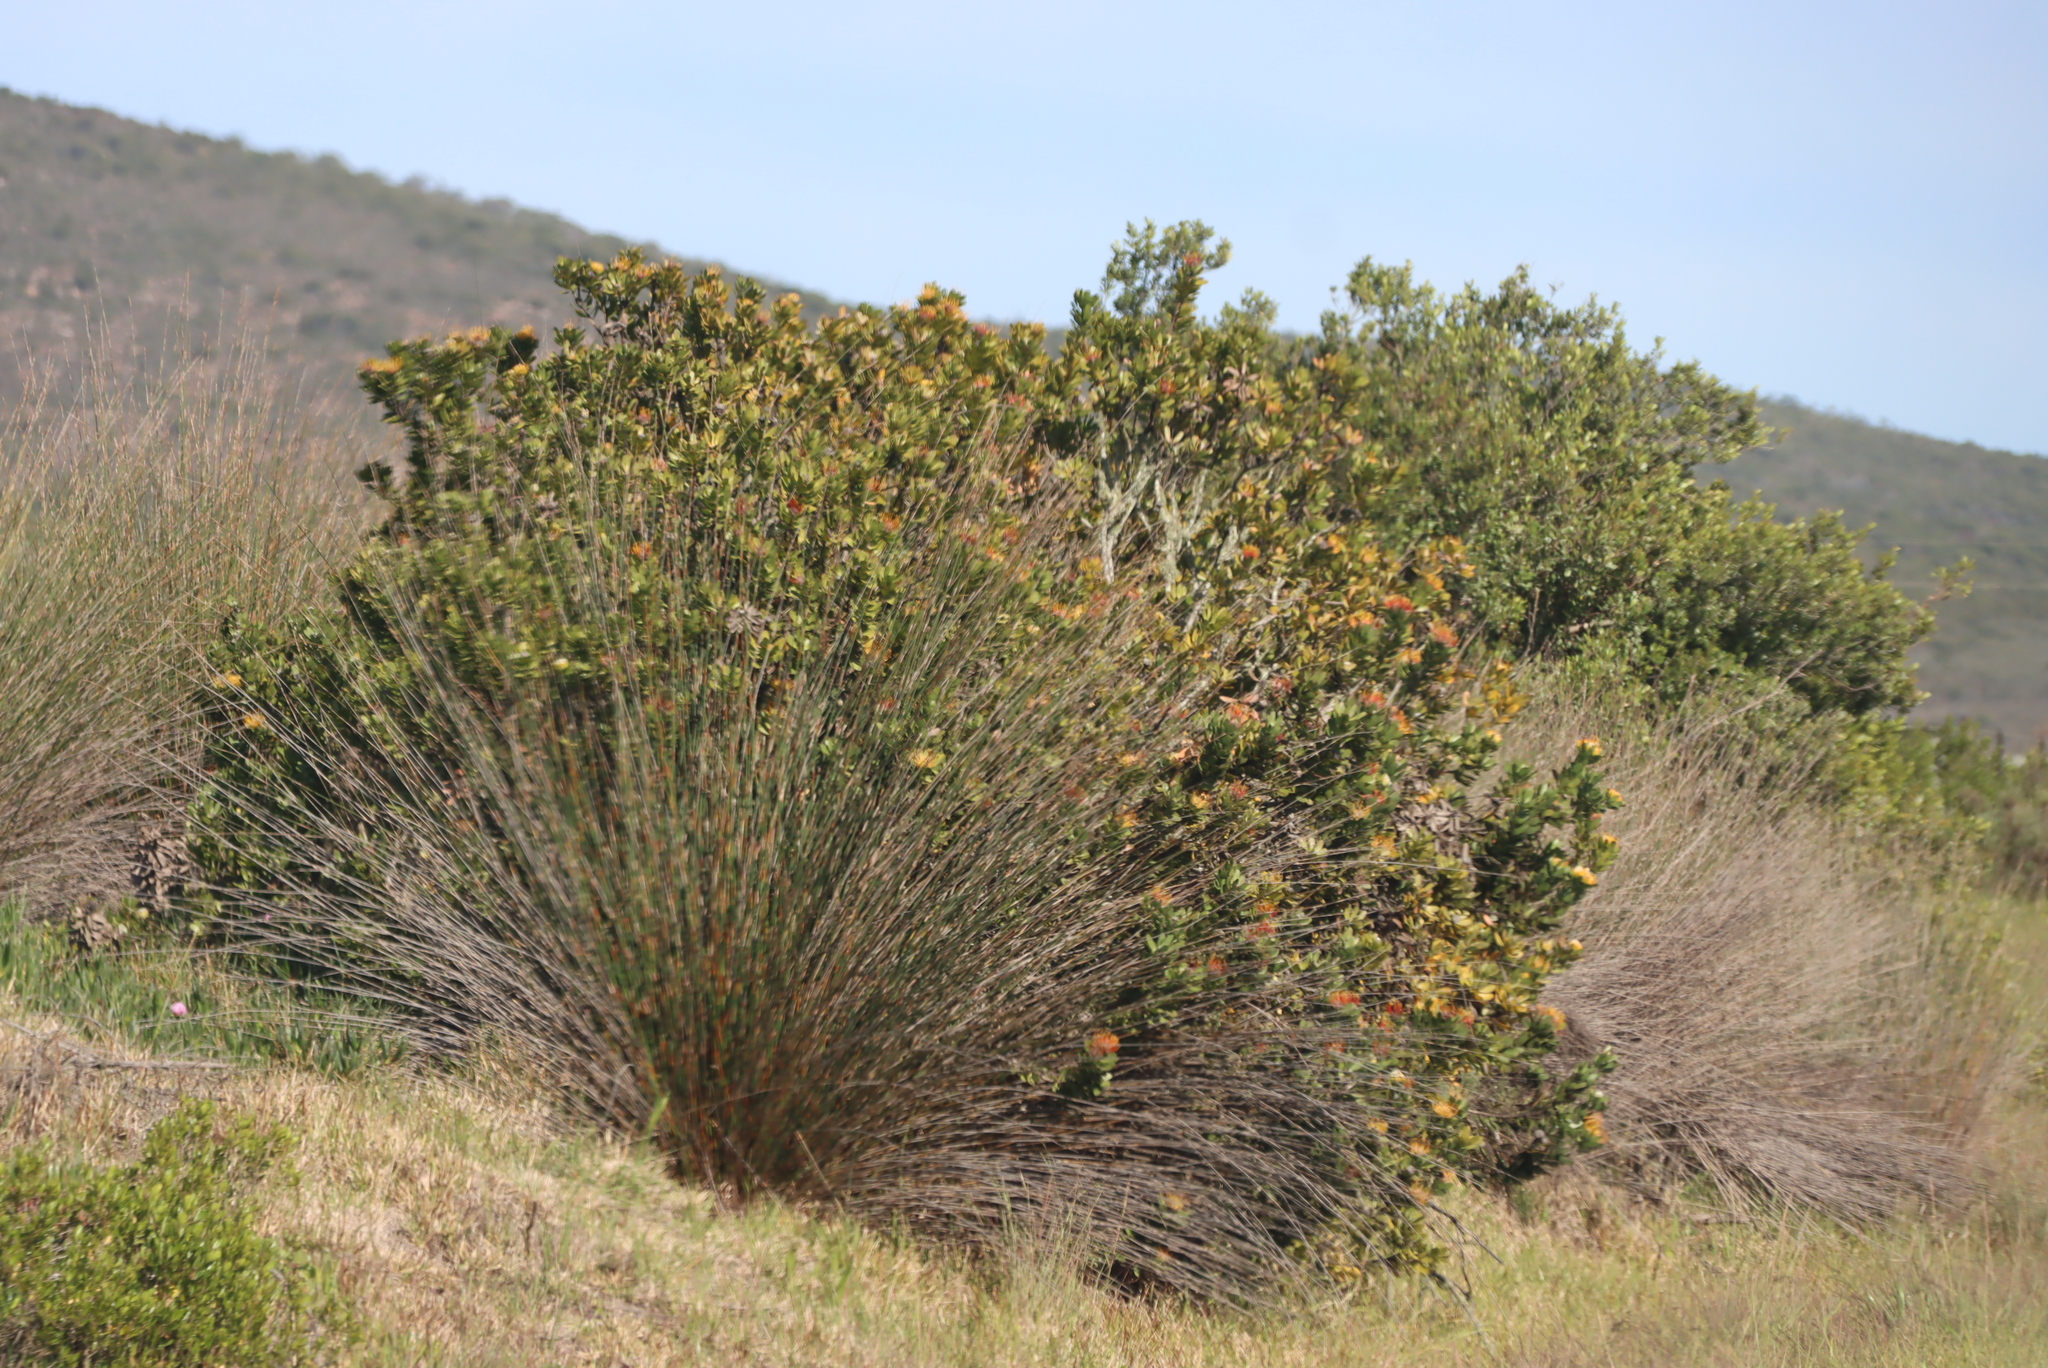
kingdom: Plantae
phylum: Tracheophyta
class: Magnoliopsida
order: Proteales
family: Proteaceae
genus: Leucospermum
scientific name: Leucospermum praecox
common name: Mossel bay pincushion
